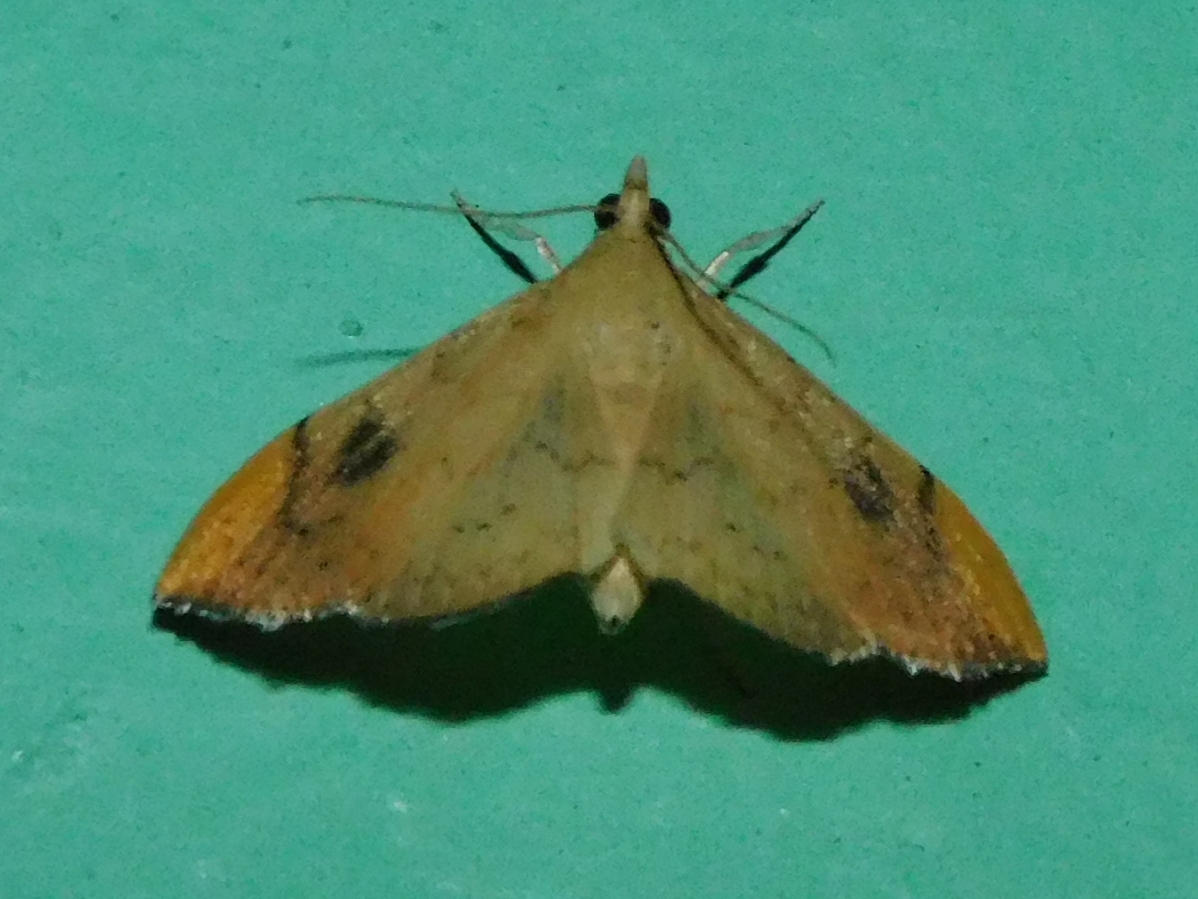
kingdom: Animalia
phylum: Arthropoda
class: Insecta
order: Lepidoptera
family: Crambidae
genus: Hyalobathra
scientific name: Hyalobathra coenostolalis
